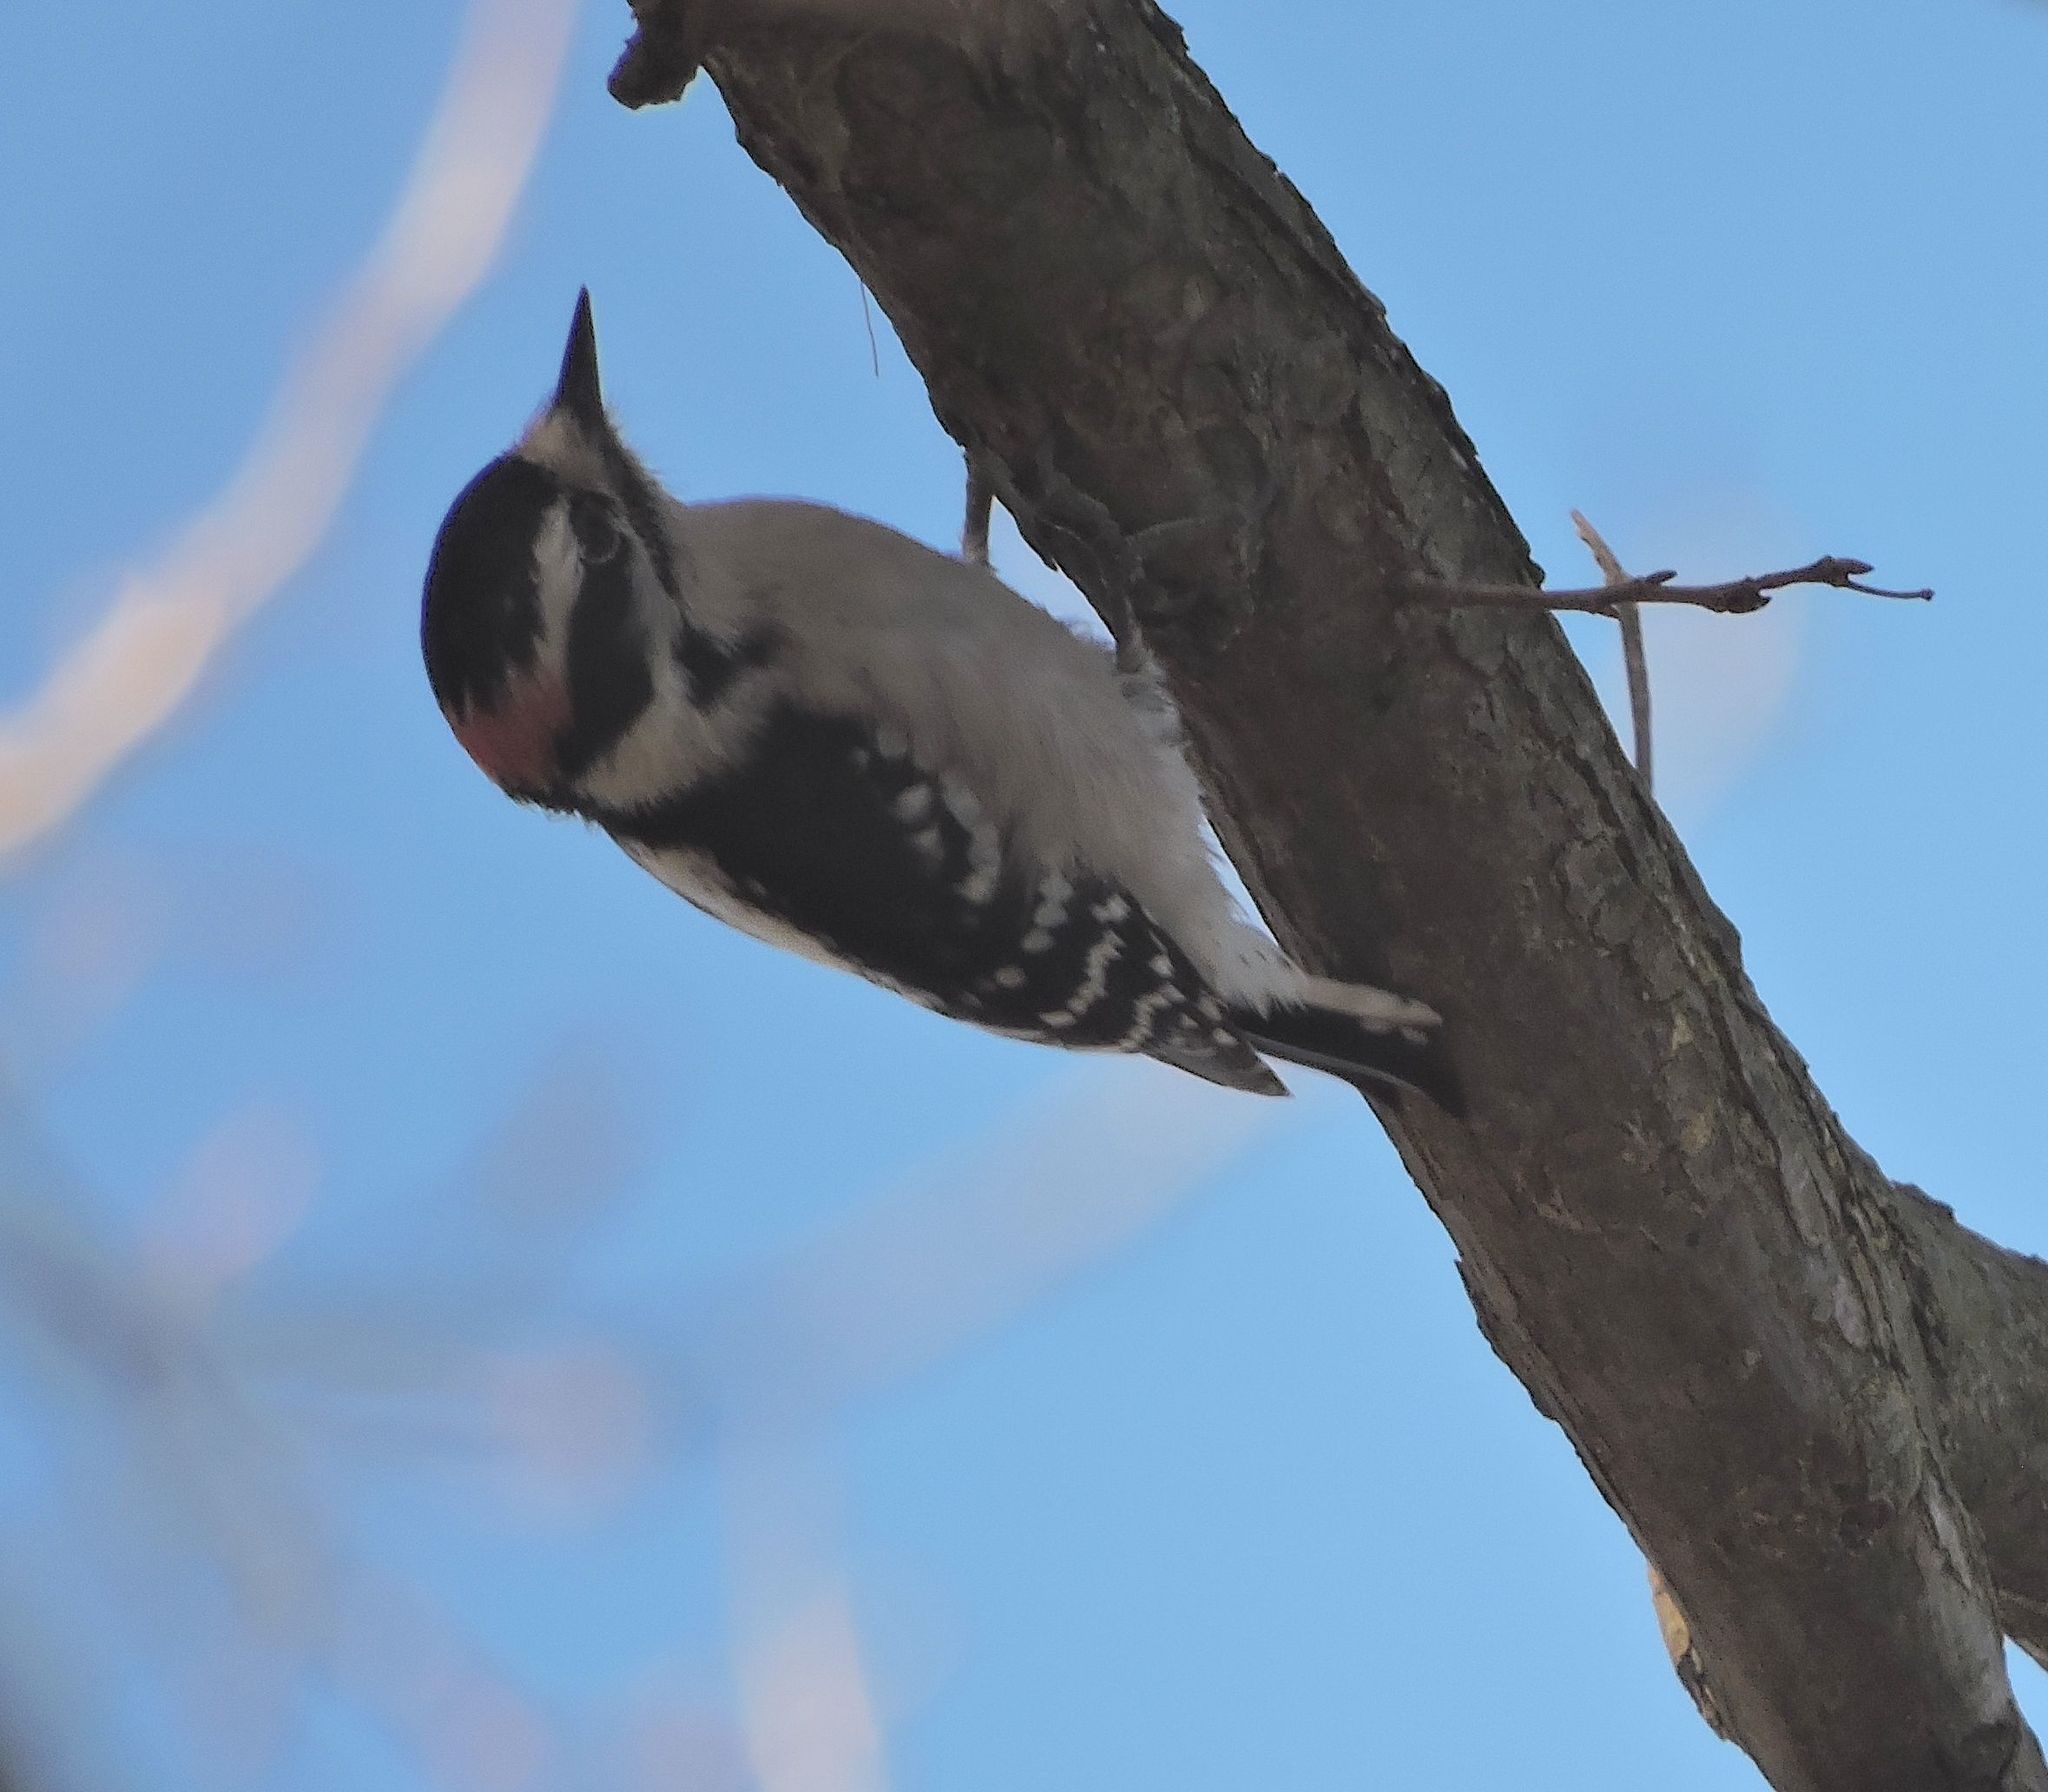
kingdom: Animalia
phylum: Chordata
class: Aves
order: Piciformes
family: Picidae
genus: Dryobates
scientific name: Dryobates pubescens
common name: Downy woodpecker
